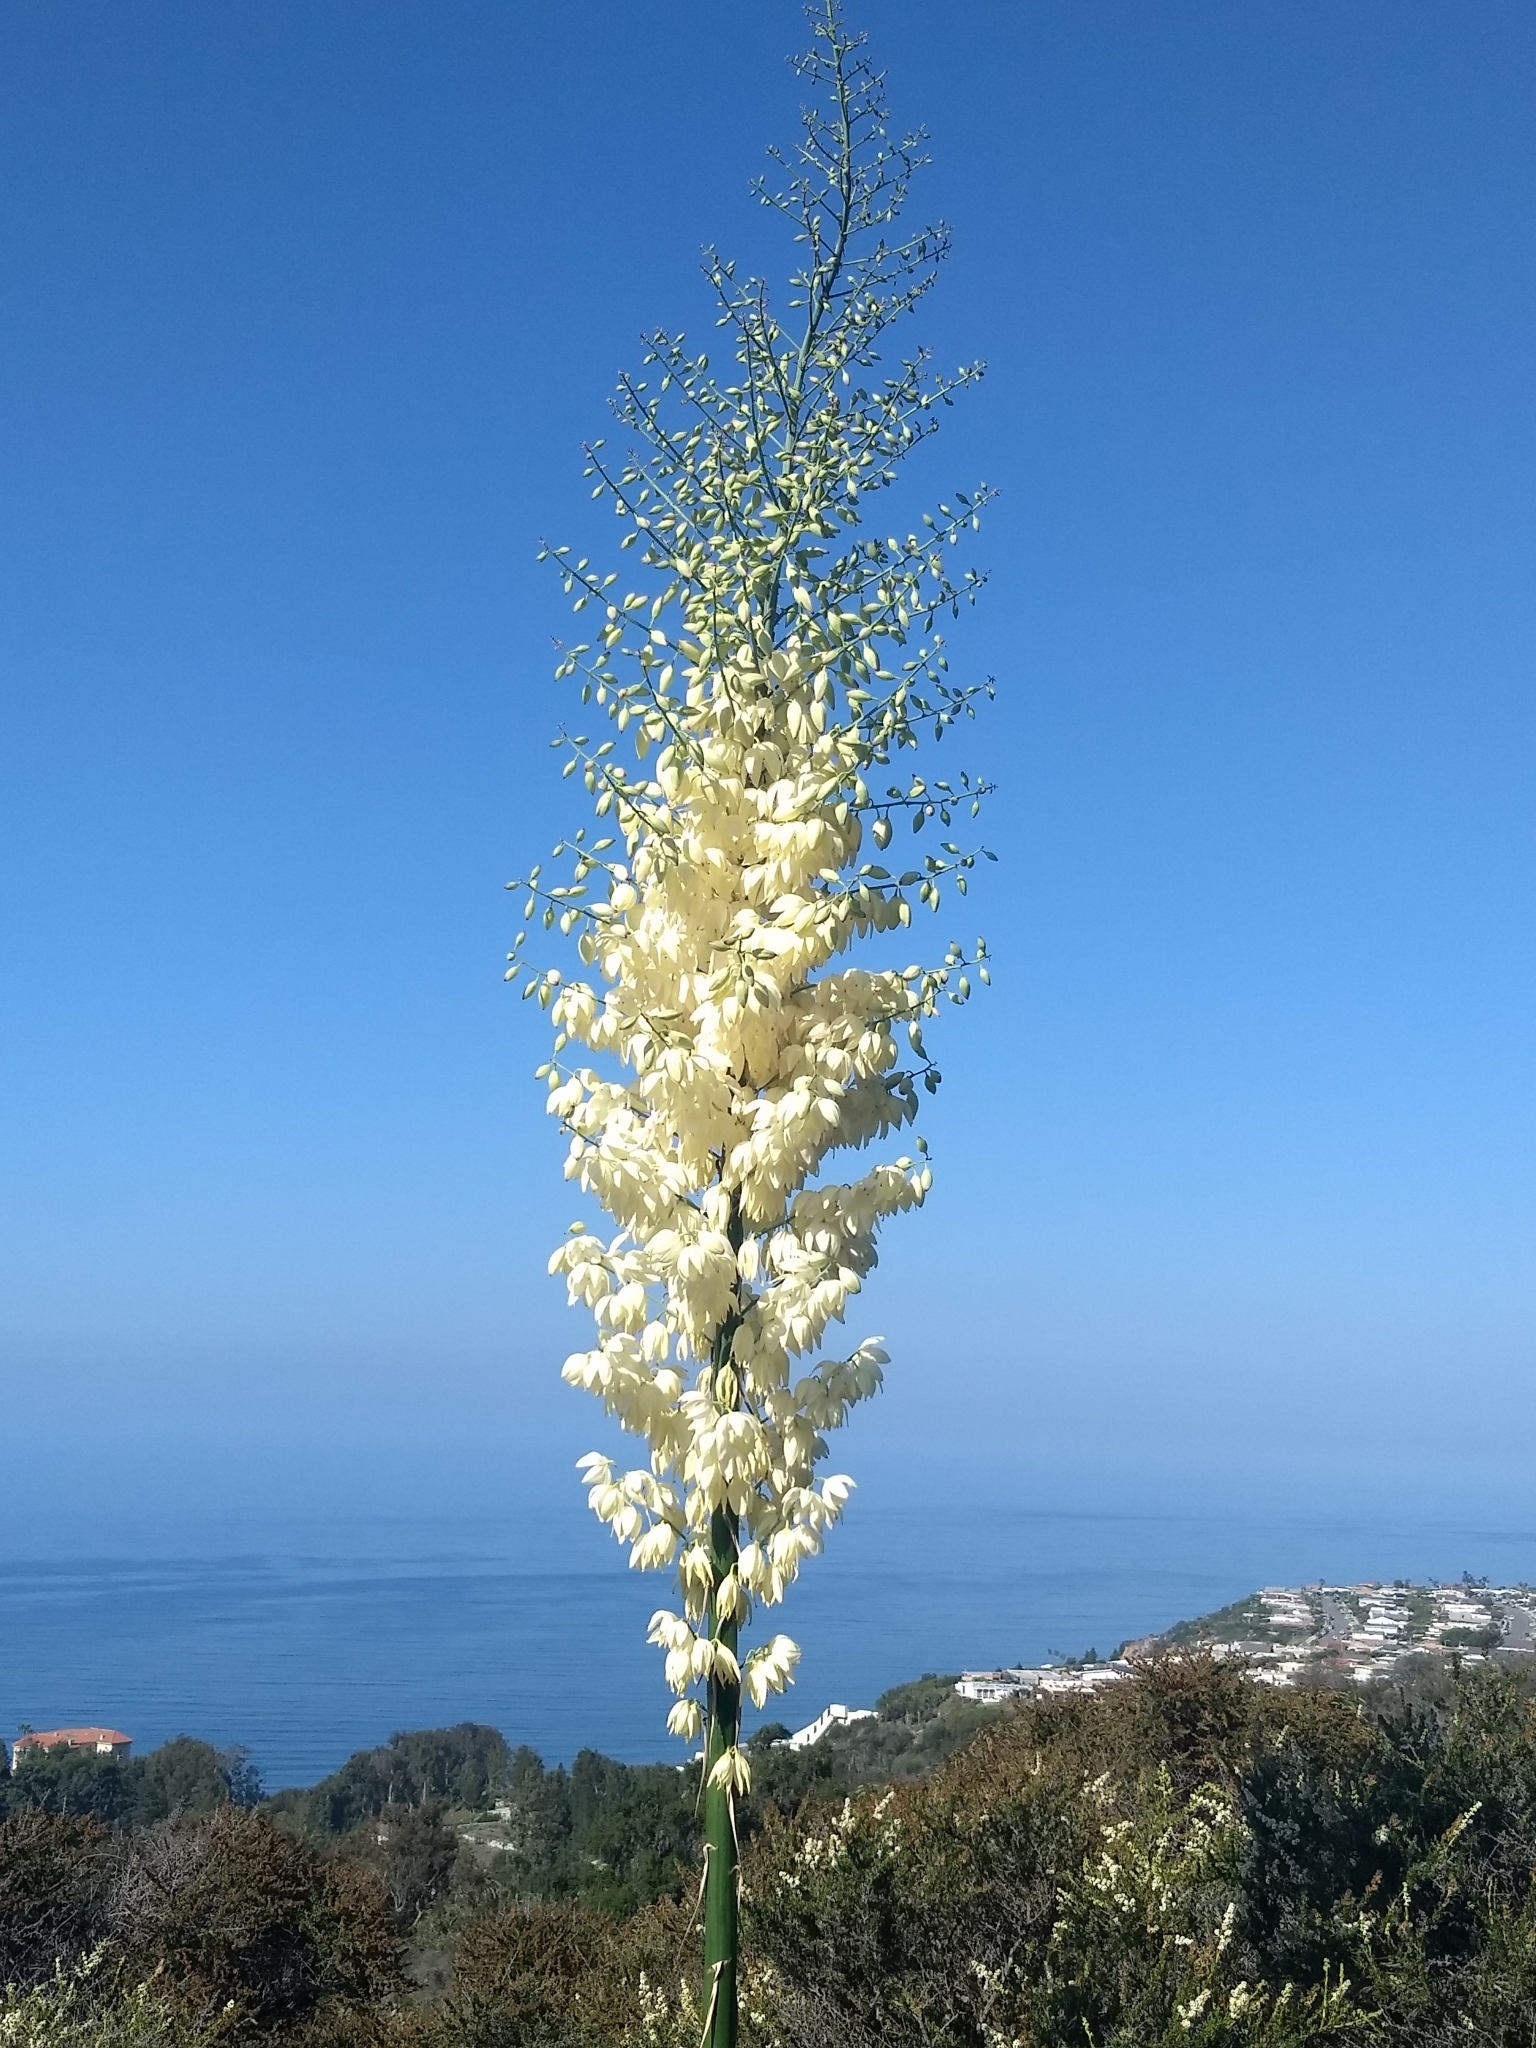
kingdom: Plantae
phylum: Tracheophyta
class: Liliopsida
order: Asparagales
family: Asparagaceae
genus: Hesperoyucca
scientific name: Hesperoyucca whipplei
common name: Our lord's-candle
